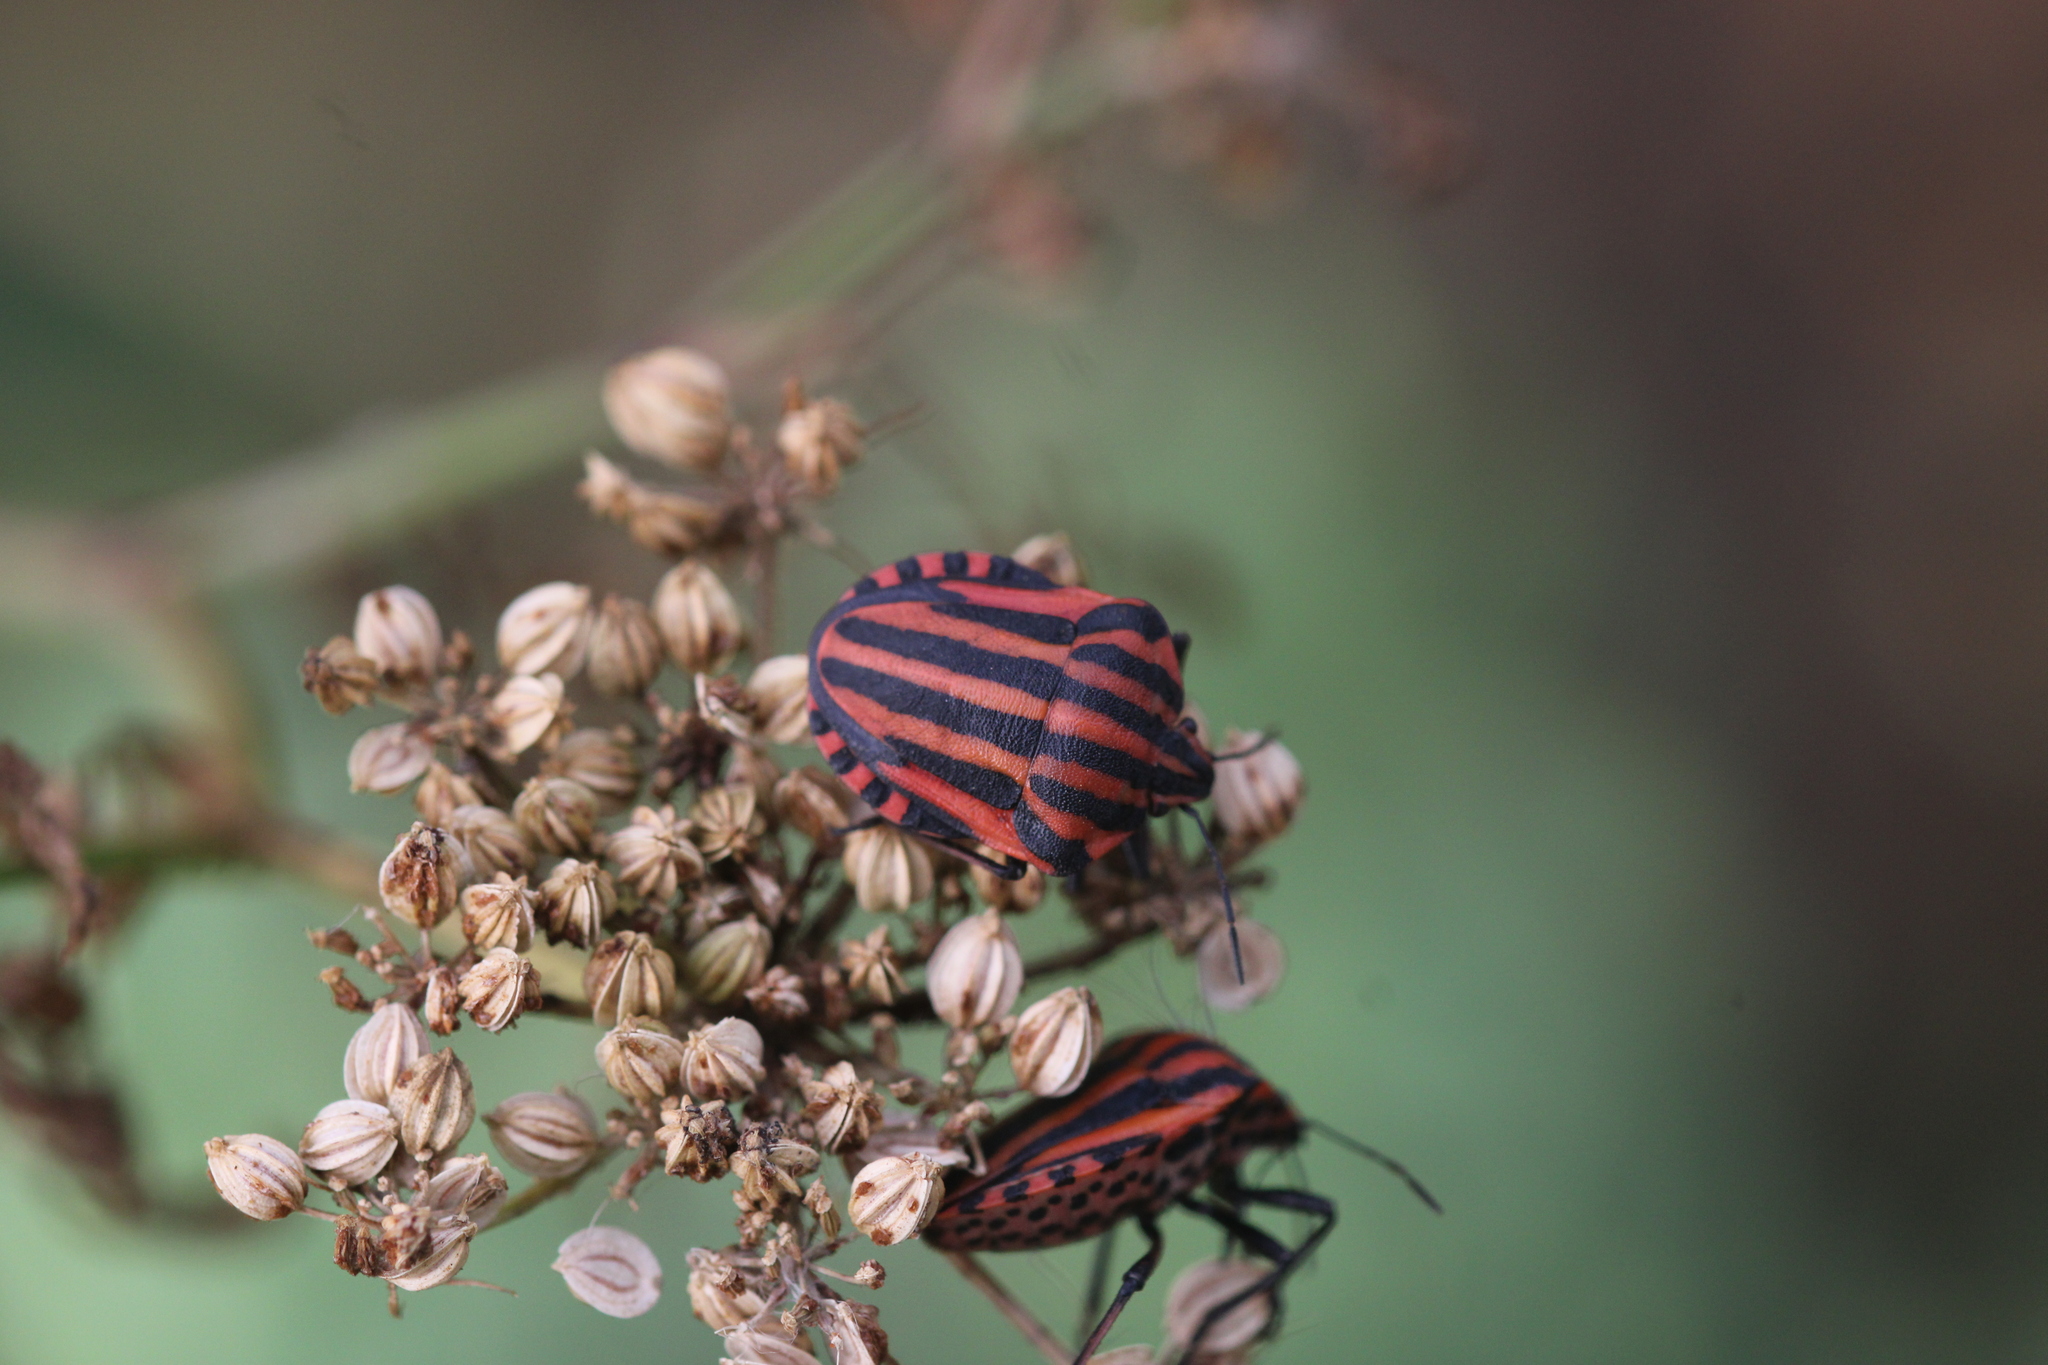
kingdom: Animalia
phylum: Arthropoda
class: Insecta
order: Hemiptera
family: Pentatomidae
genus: Graphosoma
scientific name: Graphosoma italicum
